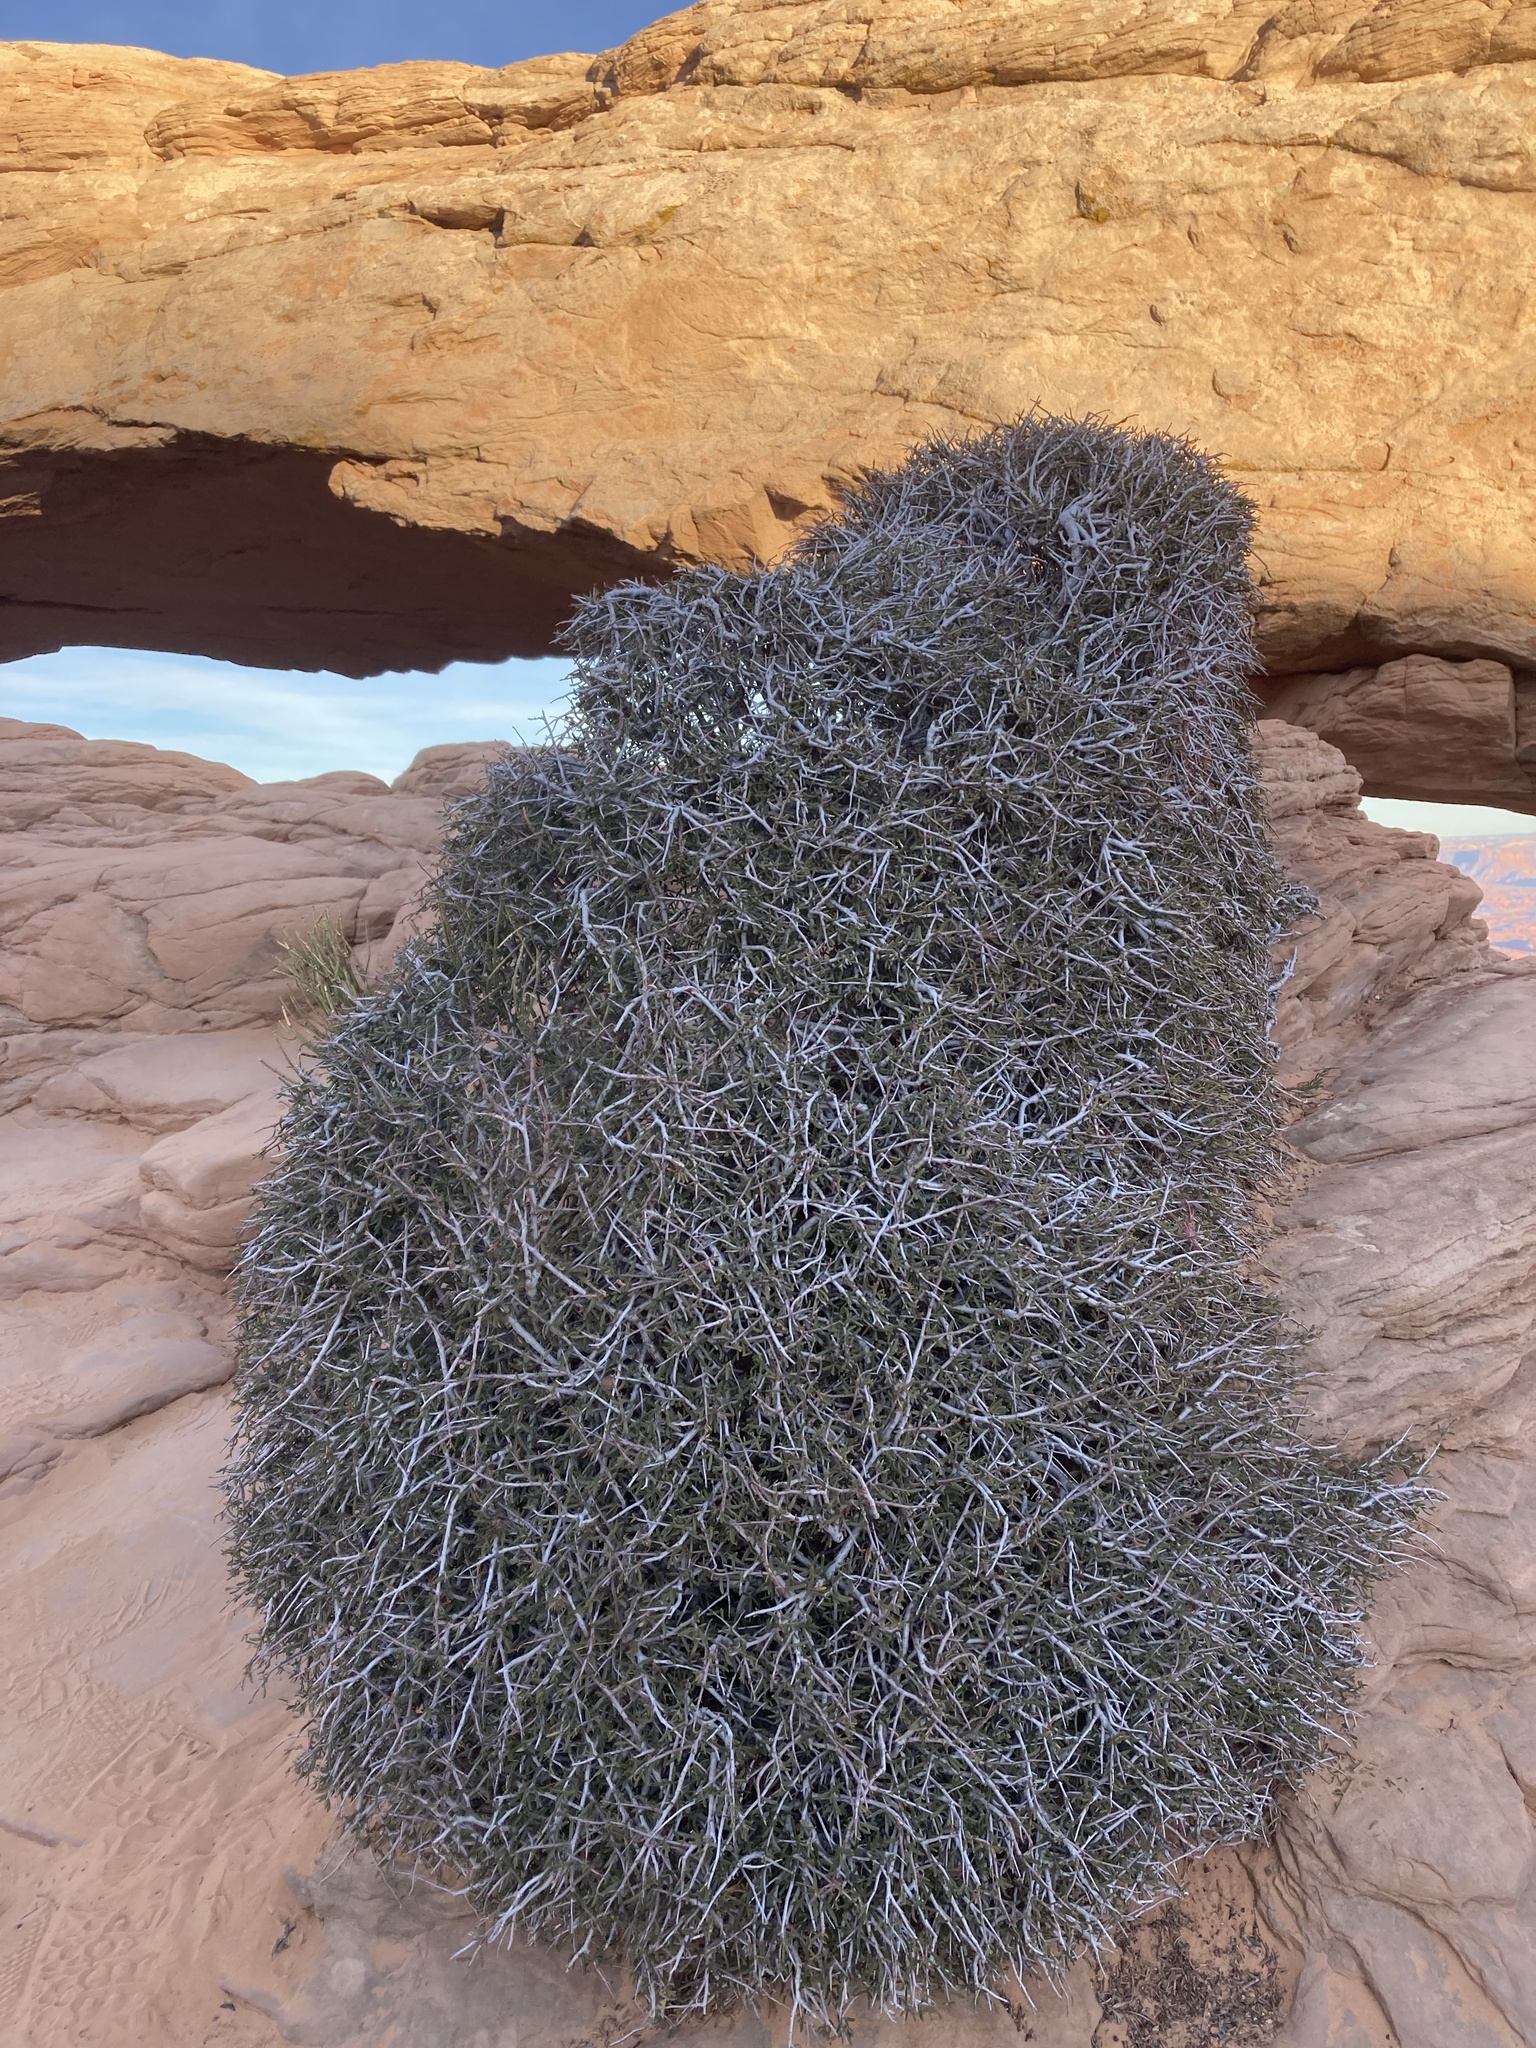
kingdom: Plantae
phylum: Tracheophyta
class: Magnoliopsida
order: Rosales
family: Rosaceae
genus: Cercocarpus
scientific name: Cercocarpus intricatus
